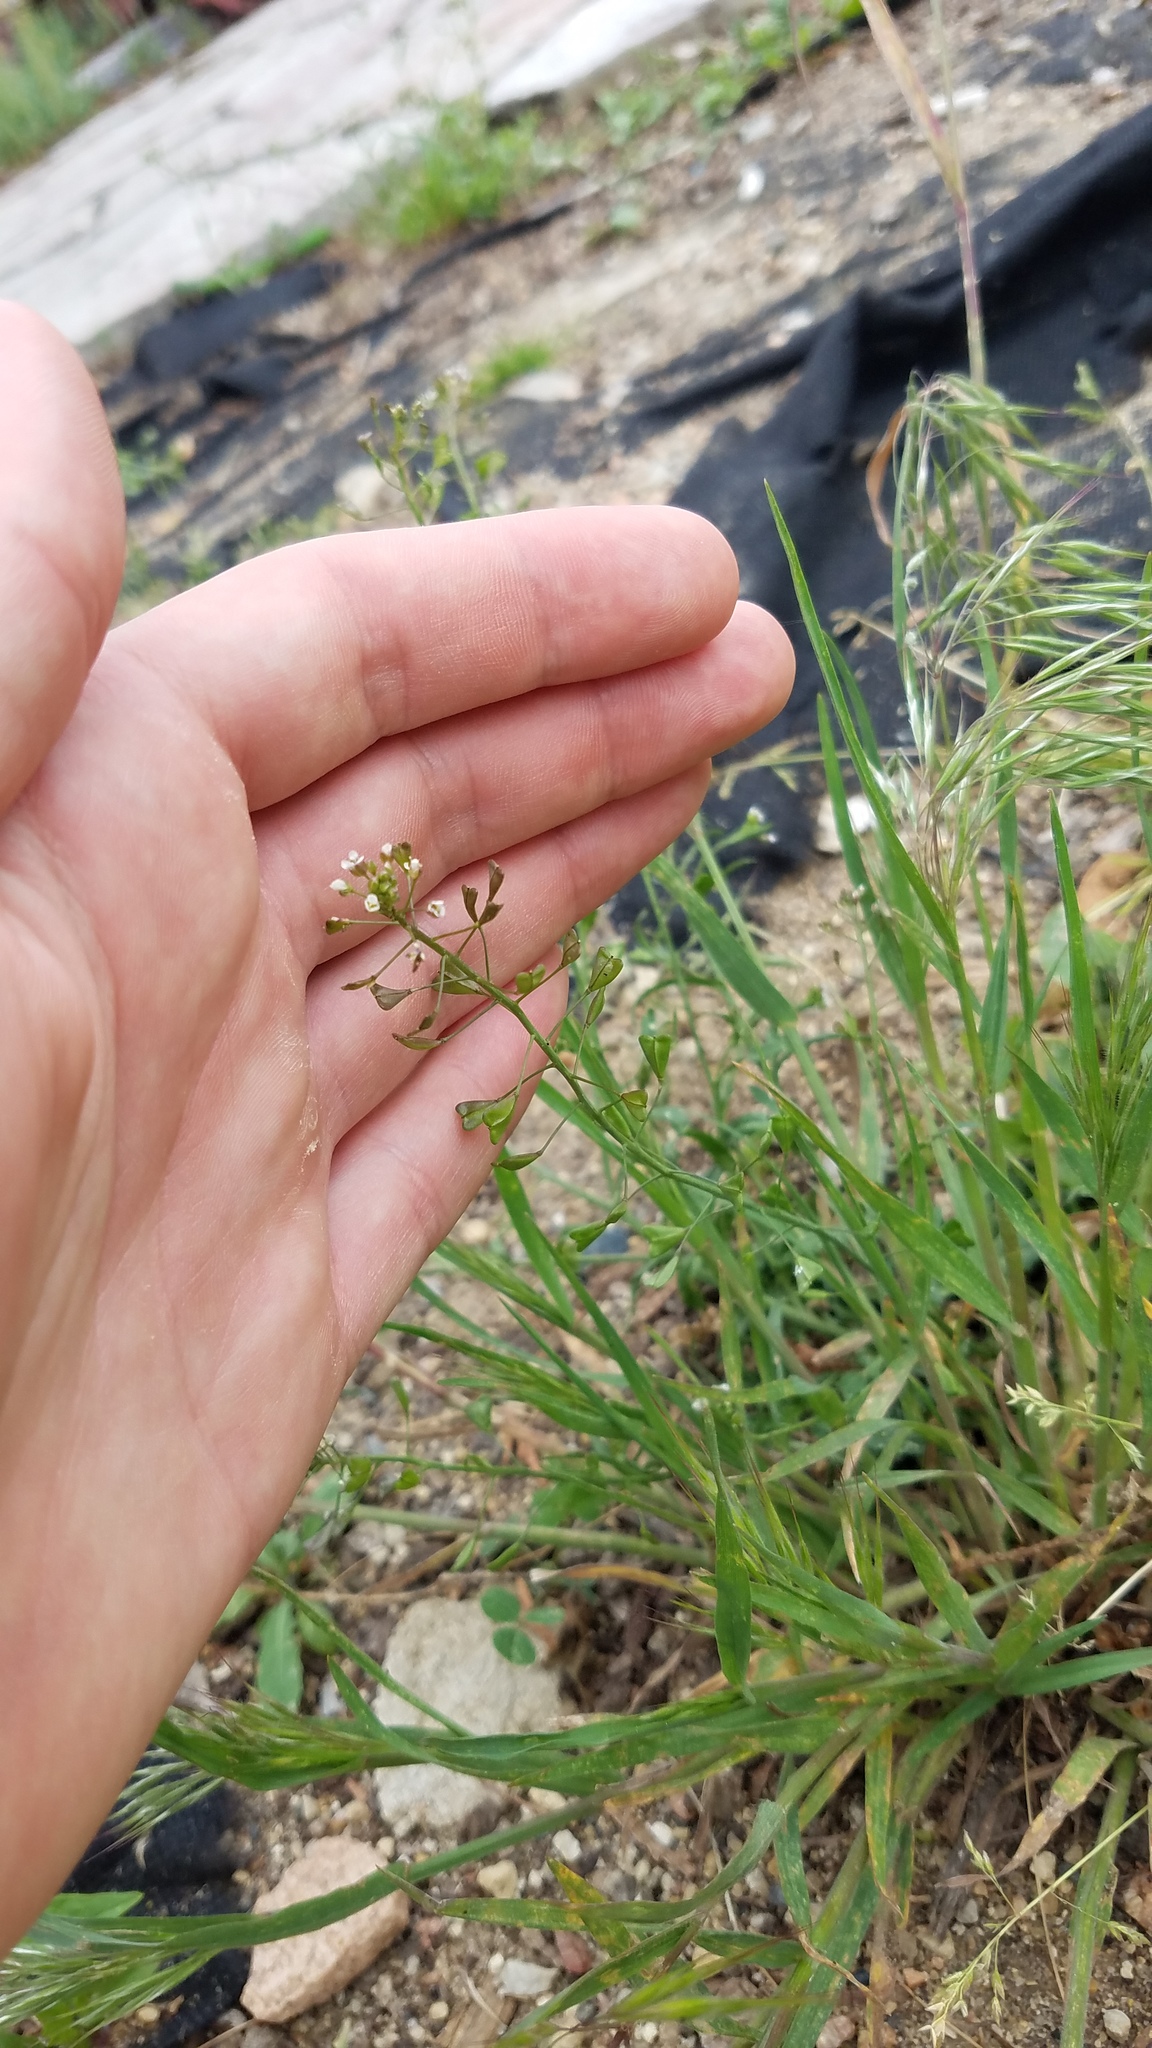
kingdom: Plantae
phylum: Tracheophyta
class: Magnoliopsida
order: Brassicales
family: Brassicaceae
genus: Capsella
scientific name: Capsella bursa-pastoris
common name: Shepherd's purse
